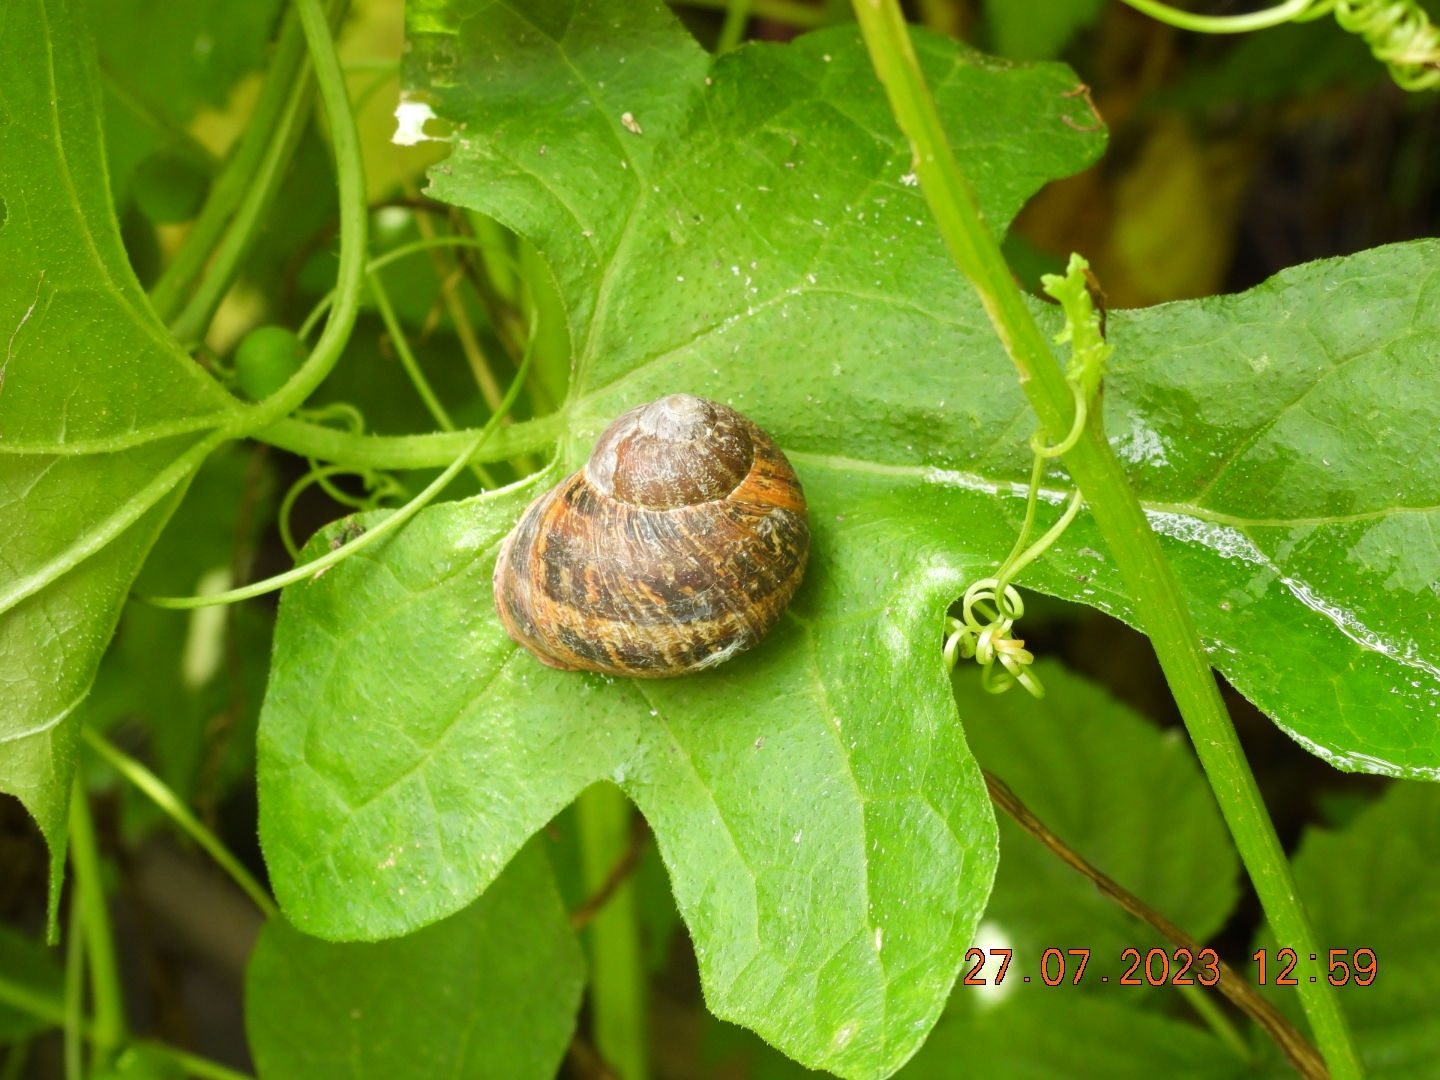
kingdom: Animalia
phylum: Mollusca
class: Gastropoda
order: Stylommatophora
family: Helicidae
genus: Cornu
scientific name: Cornu aspersum
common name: Brown garden snail
